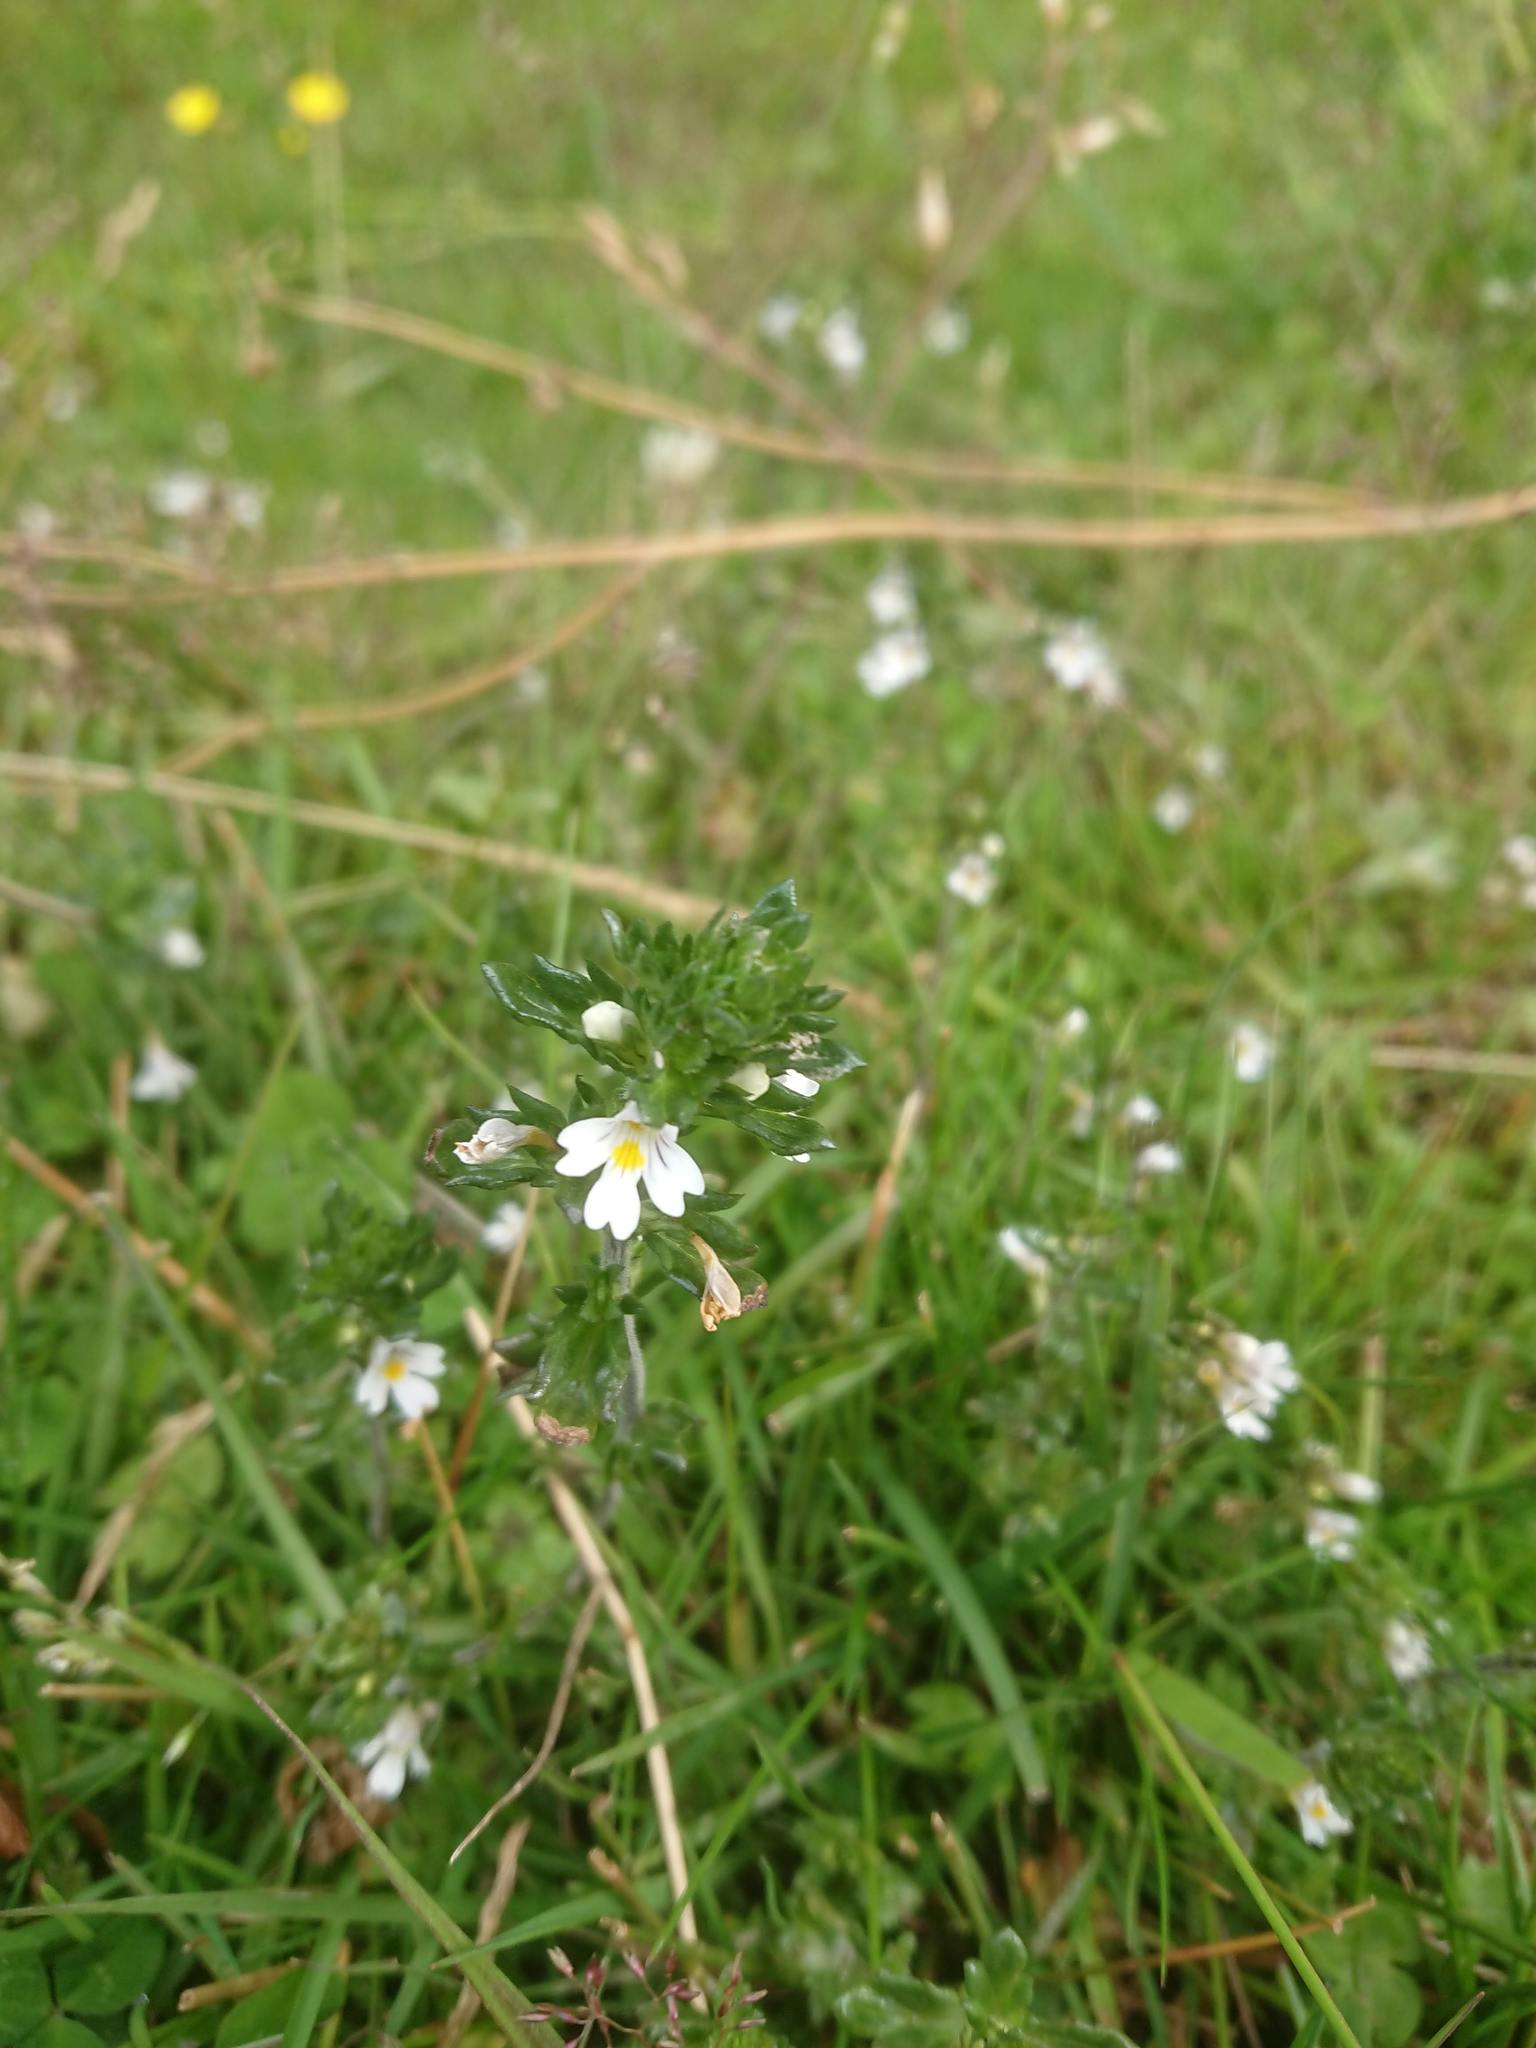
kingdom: Plantae
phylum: Tracheophyta
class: Magnoliopsida
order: Lamiales
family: Orobanchaceae
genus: Euphrasia
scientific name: Euphrasia officinalis
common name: Eyebright
